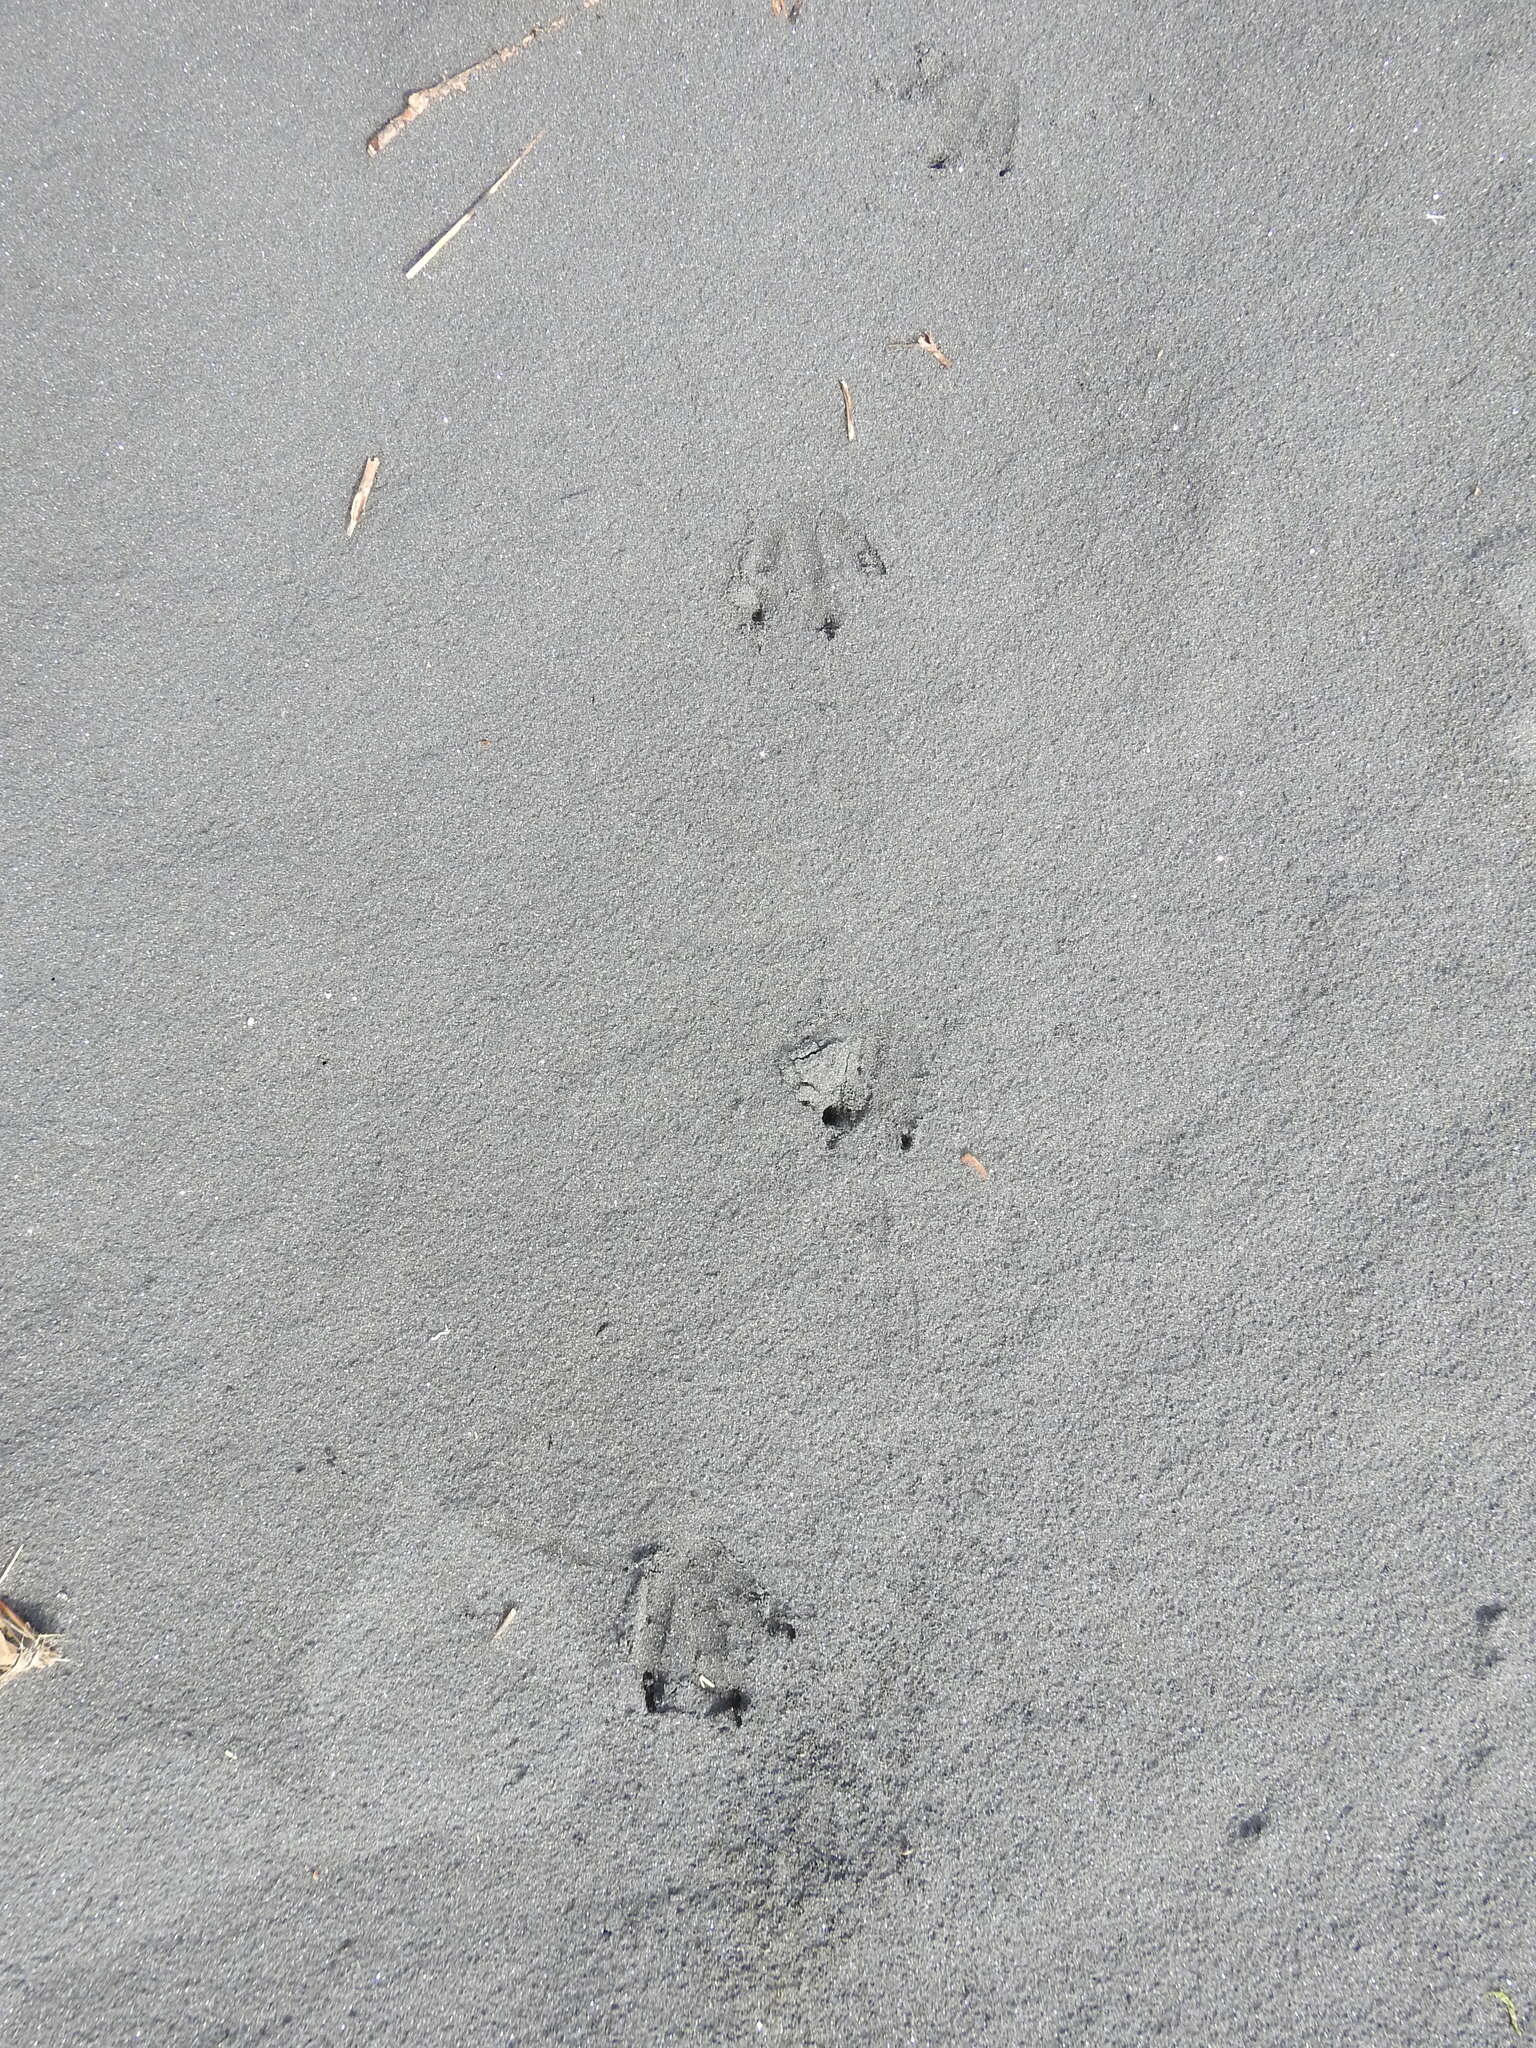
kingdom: Animalia
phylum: Chordata
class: Aves
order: Sphenisciformes
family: Spheniscidae
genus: Eudyptula
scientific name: Eudyptula minor
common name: Little penguin
